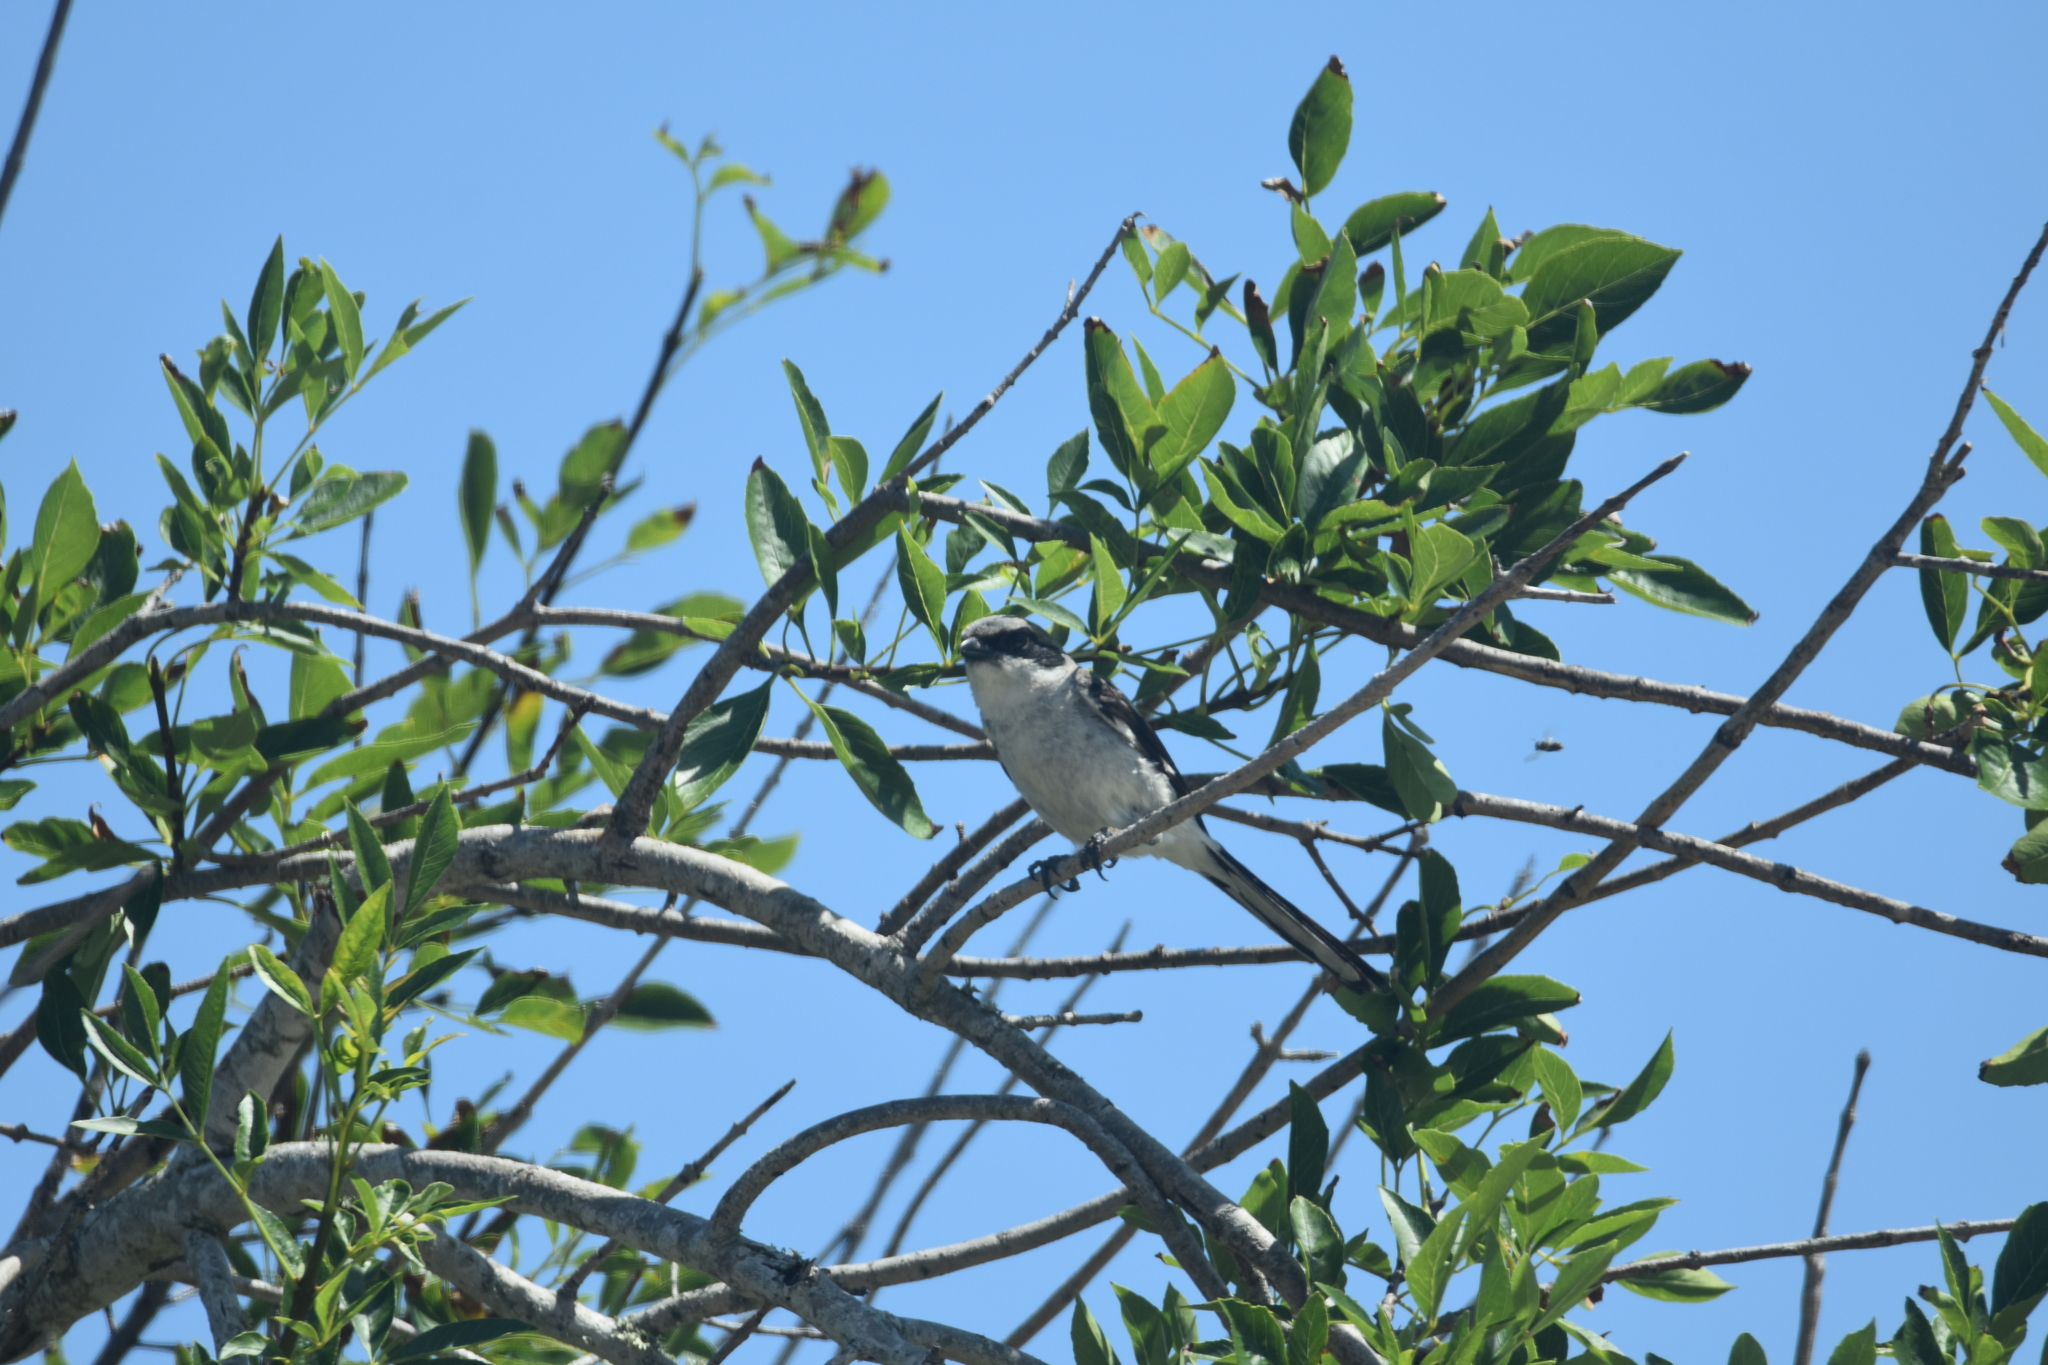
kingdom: Animalia
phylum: Chordata
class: Aves
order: Passeriformes
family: Laniidae
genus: Lanius
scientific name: Lanius ludovicianus
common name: Loggerhead shrike
